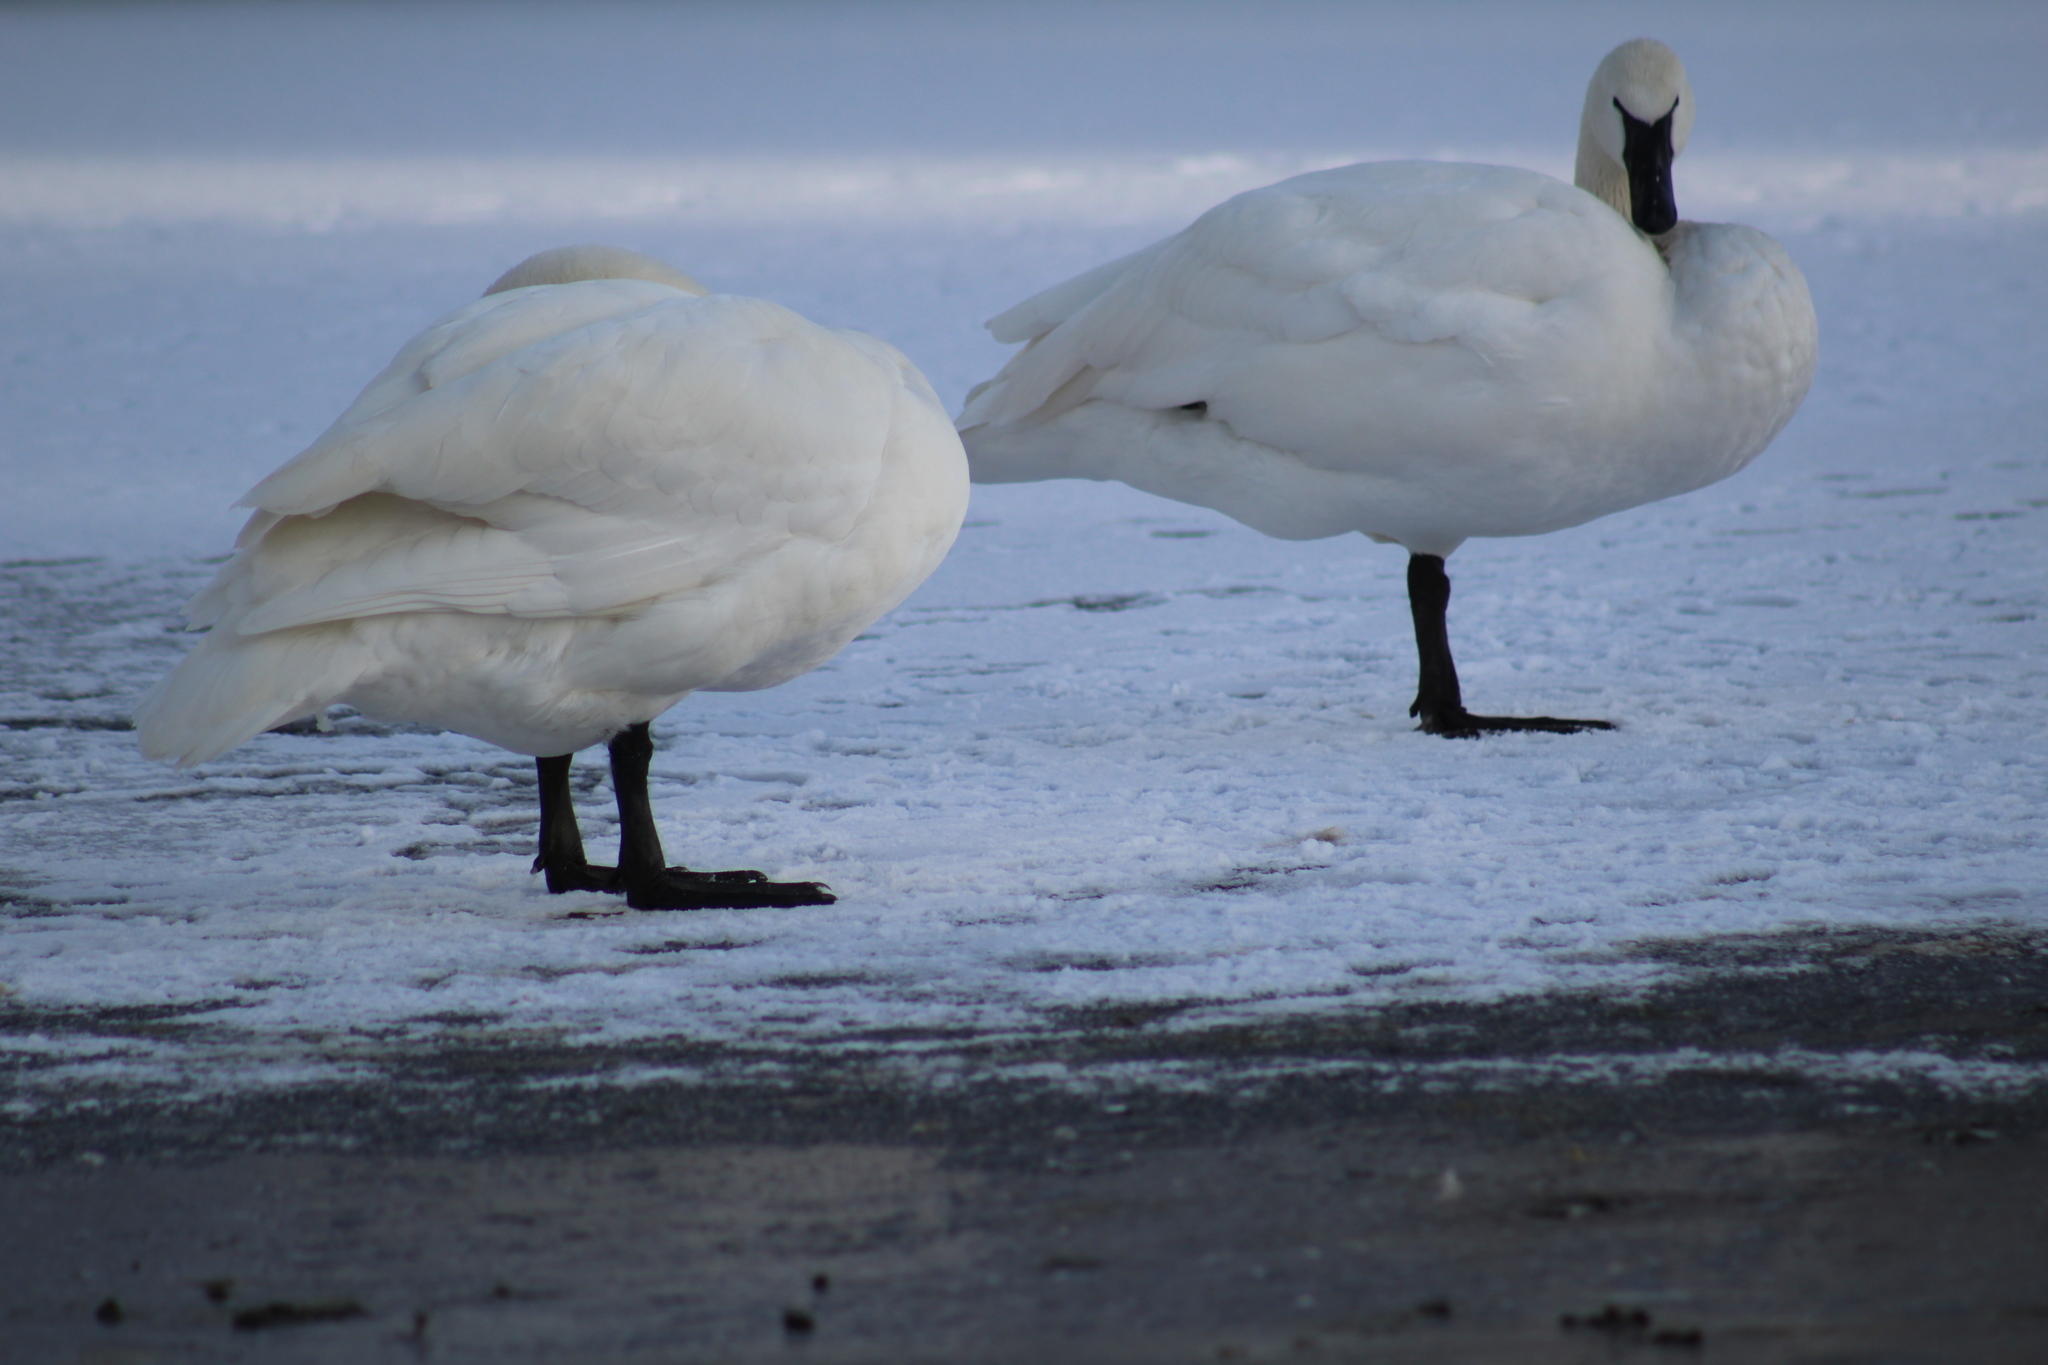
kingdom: Animalia
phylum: Chordata
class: Aves
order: Anseriformes
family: Anatidae
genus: Cygnus
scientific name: Cygnus buccinator
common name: Trumpeter swan
